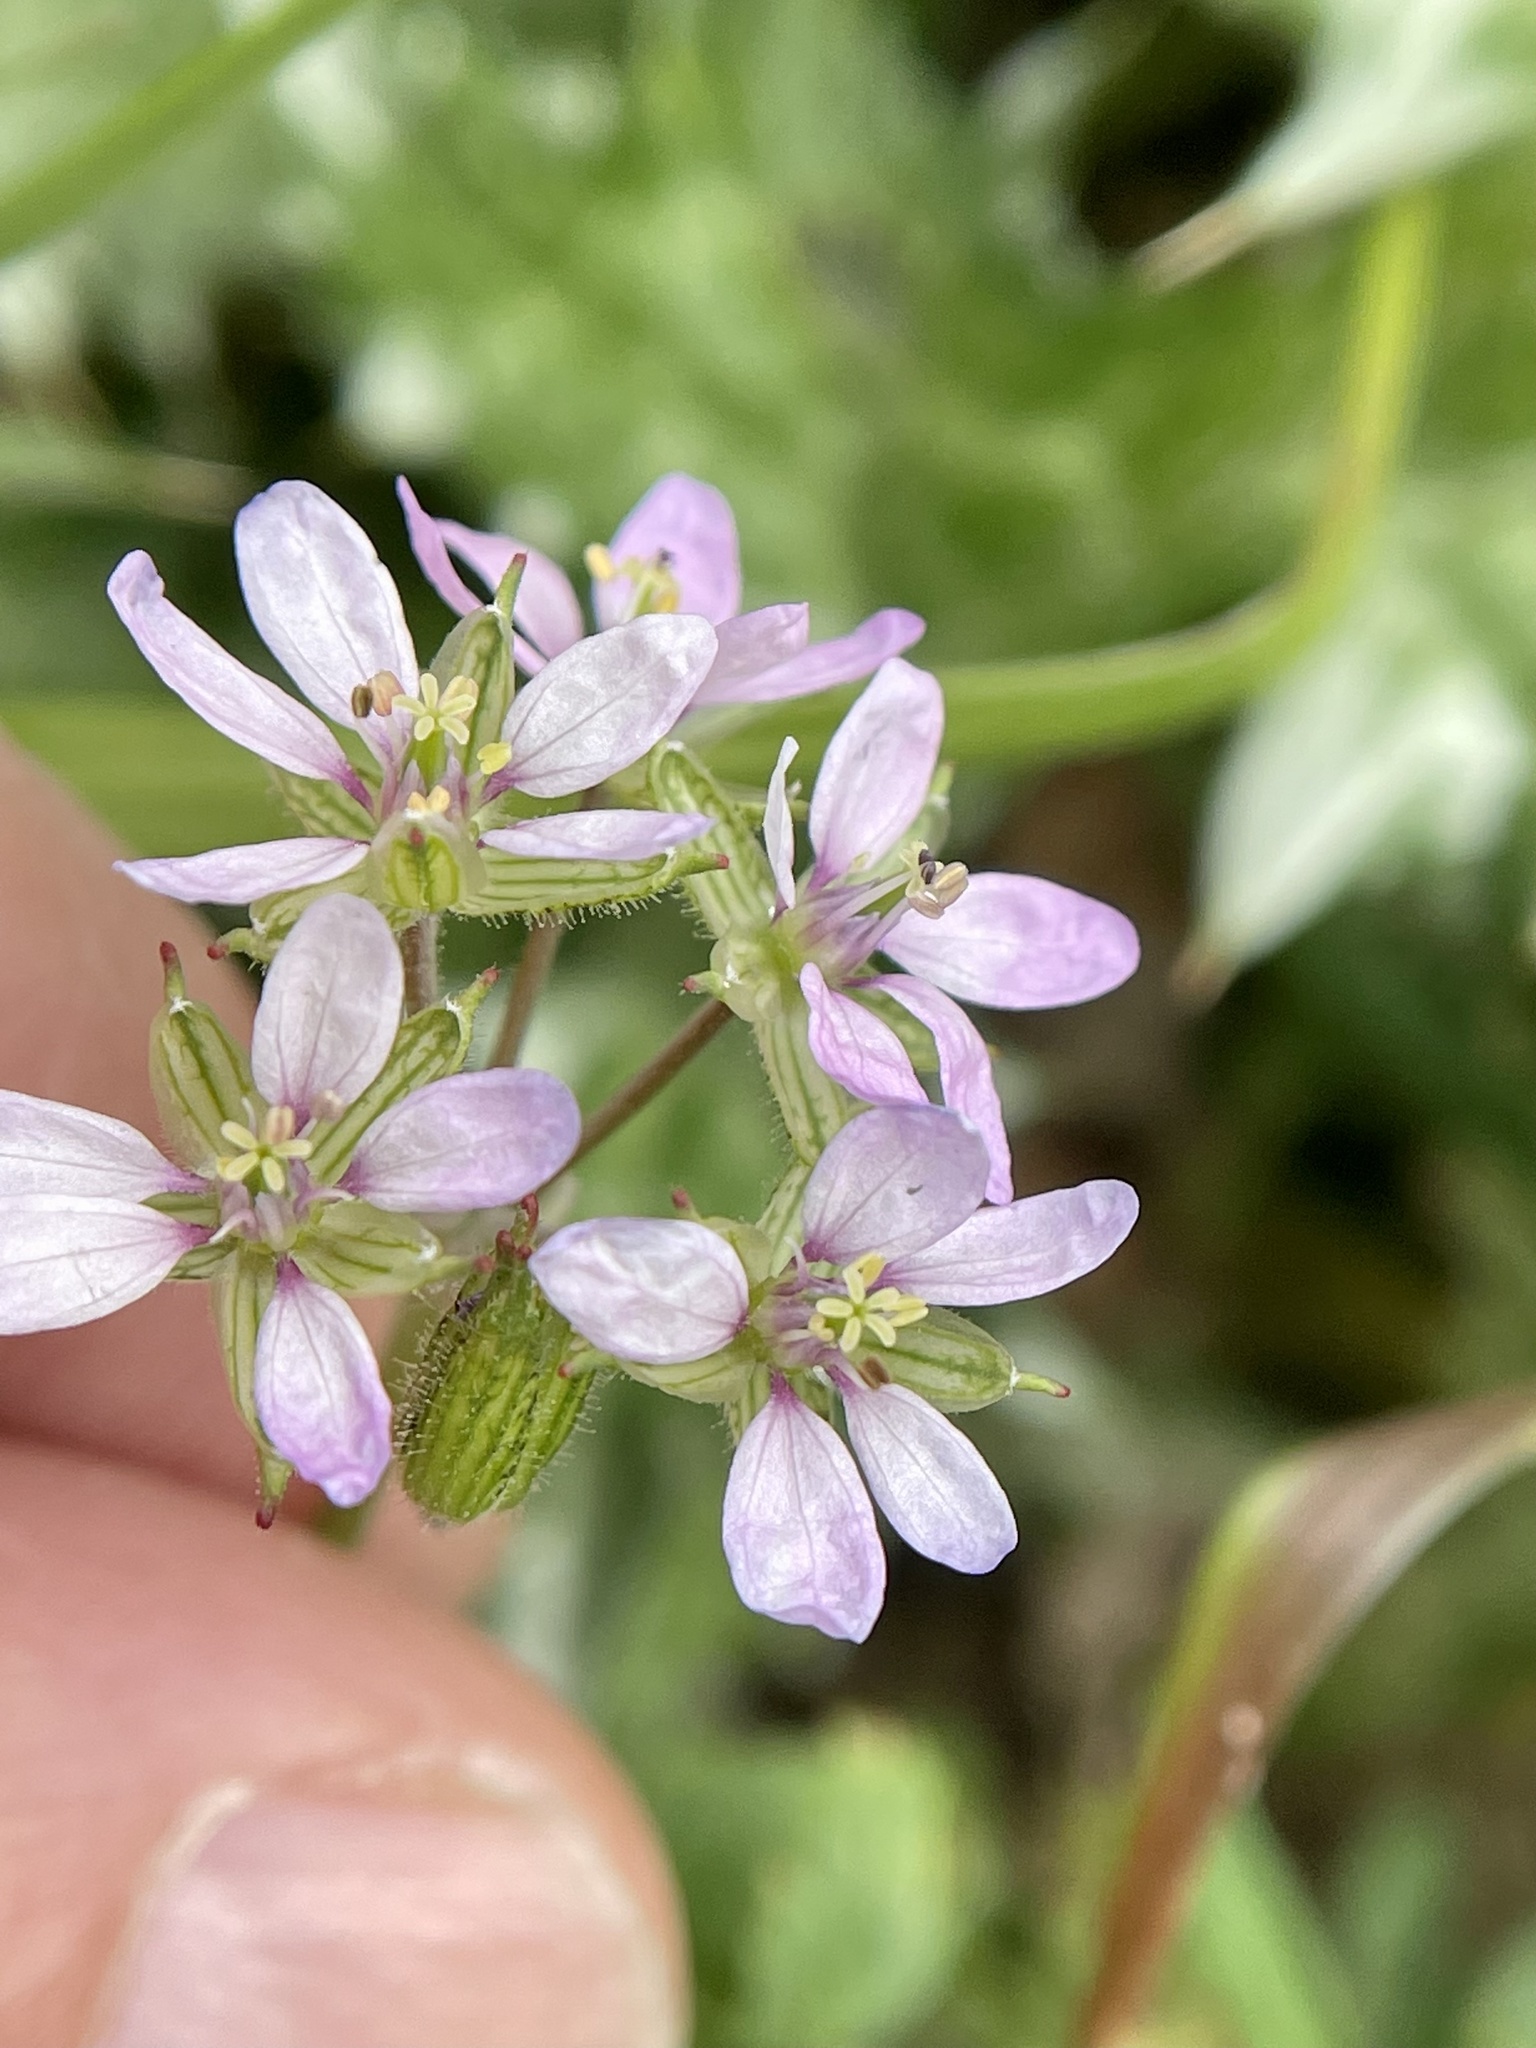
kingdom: Plantae
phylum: Tracheophyta
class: Magnoliopsida
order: Geraniales
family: Geraniaceae
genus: Erodium
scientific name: Erodium moschatum
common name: Musk stork's-bill
